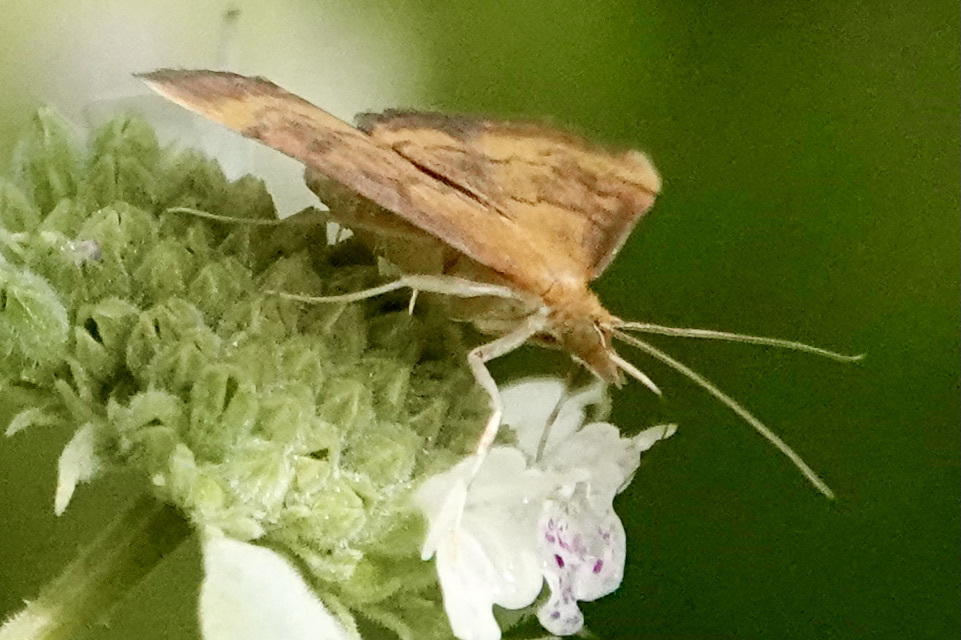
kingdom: Animalia
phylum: Arthropoda
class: Insecta
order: Lepidoptera
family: Crambidae
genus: Pyrausta
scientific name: Pyrausta rubricalis
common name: Variable reddish pyrausta
